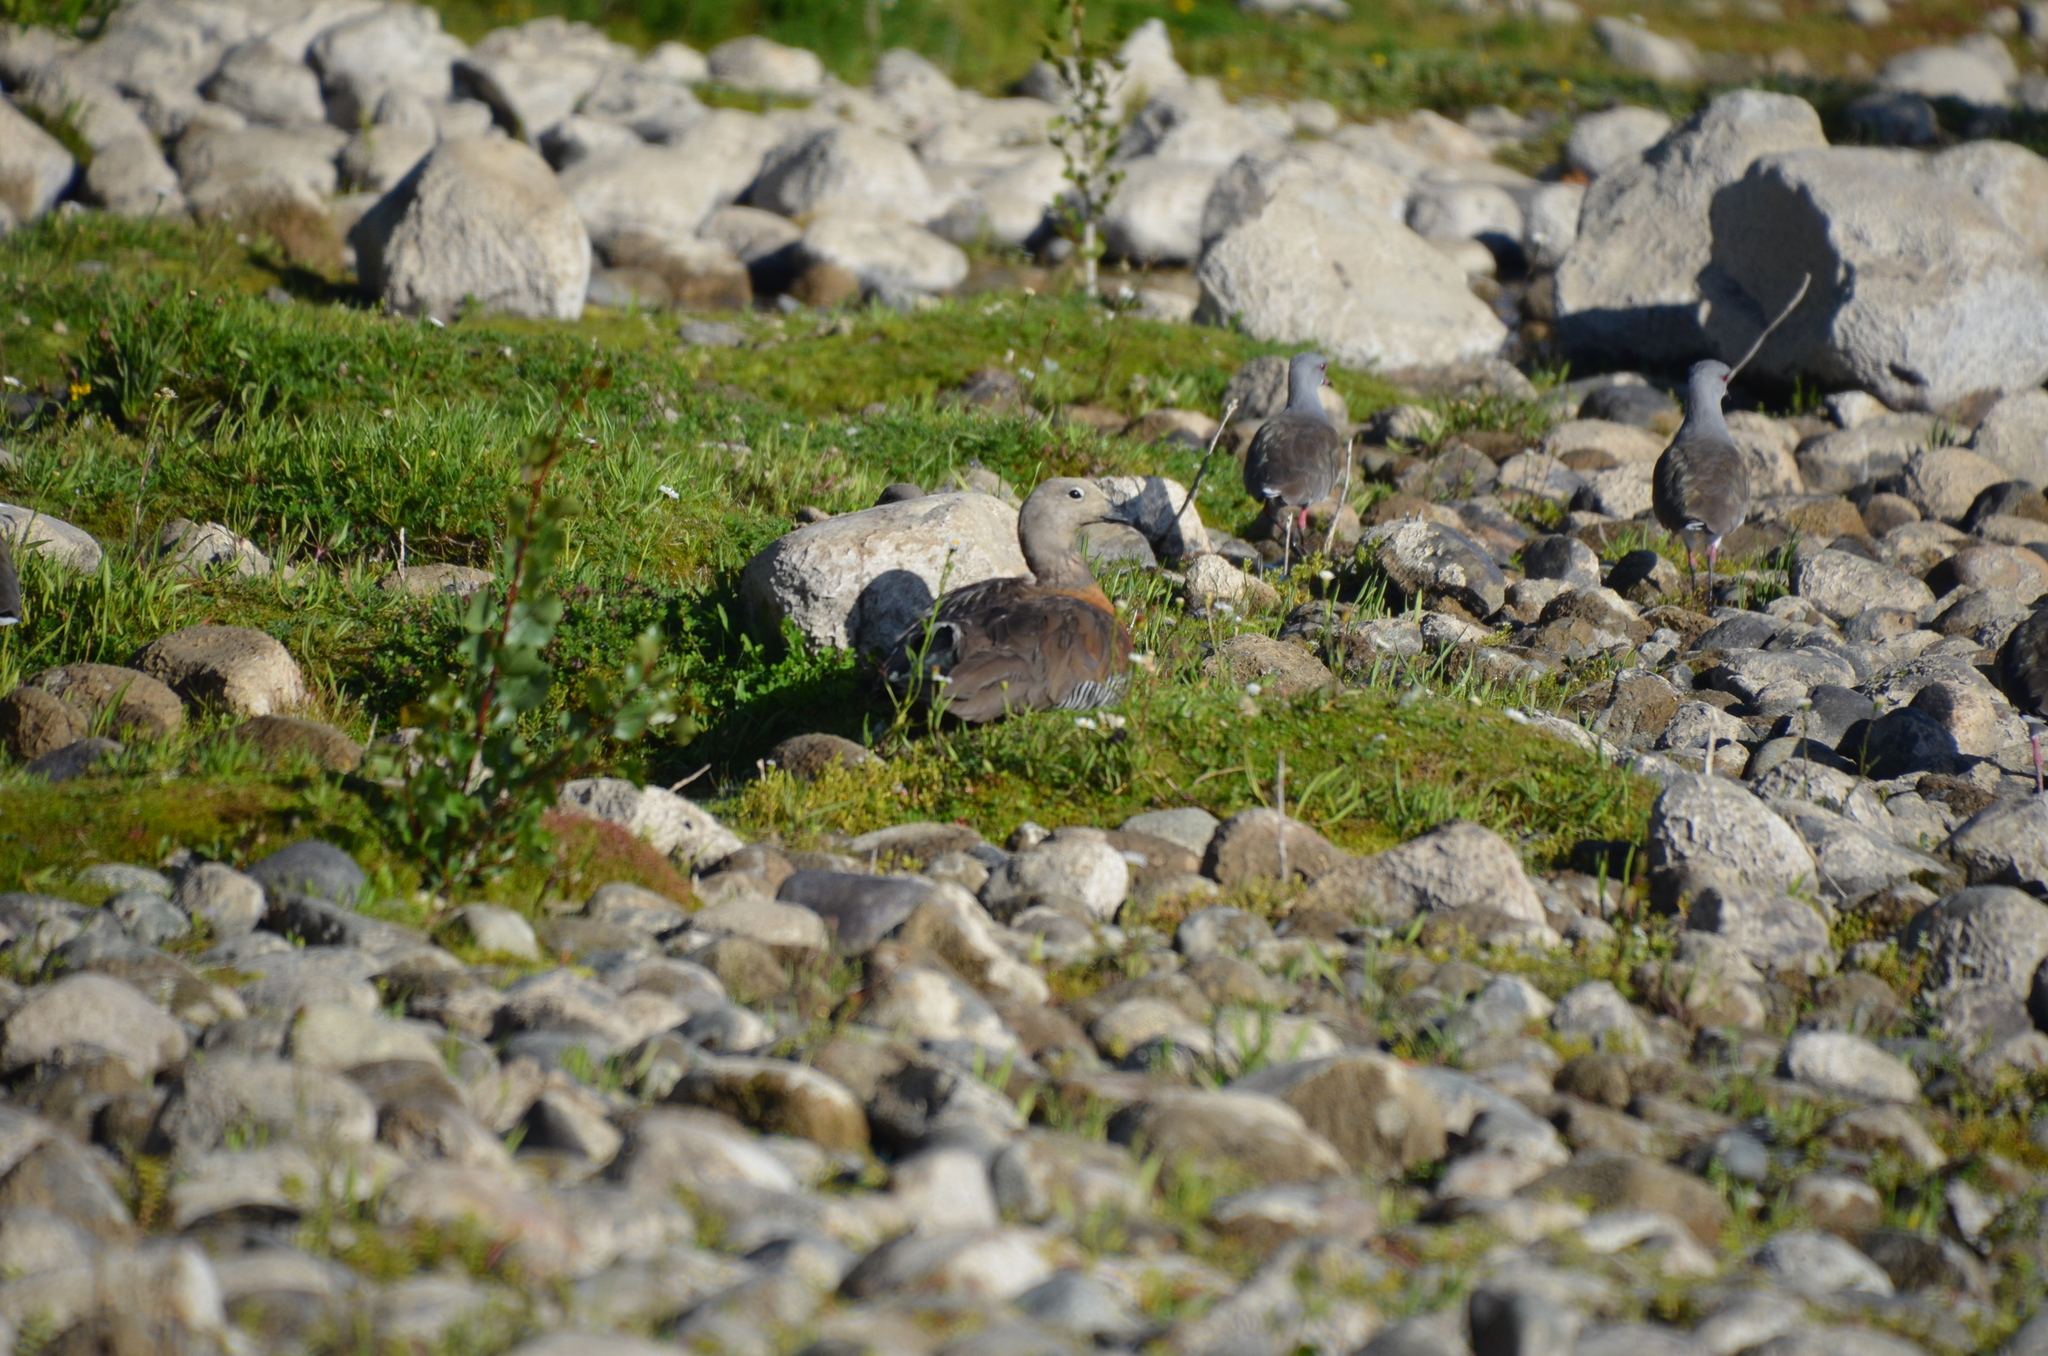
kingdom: Animalia
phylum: Chordata
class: Aves
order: Anseriformes
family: Anatidae
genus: Chloephaga
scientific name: Chloephaga poliocephala
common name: Ashy-headed goose
